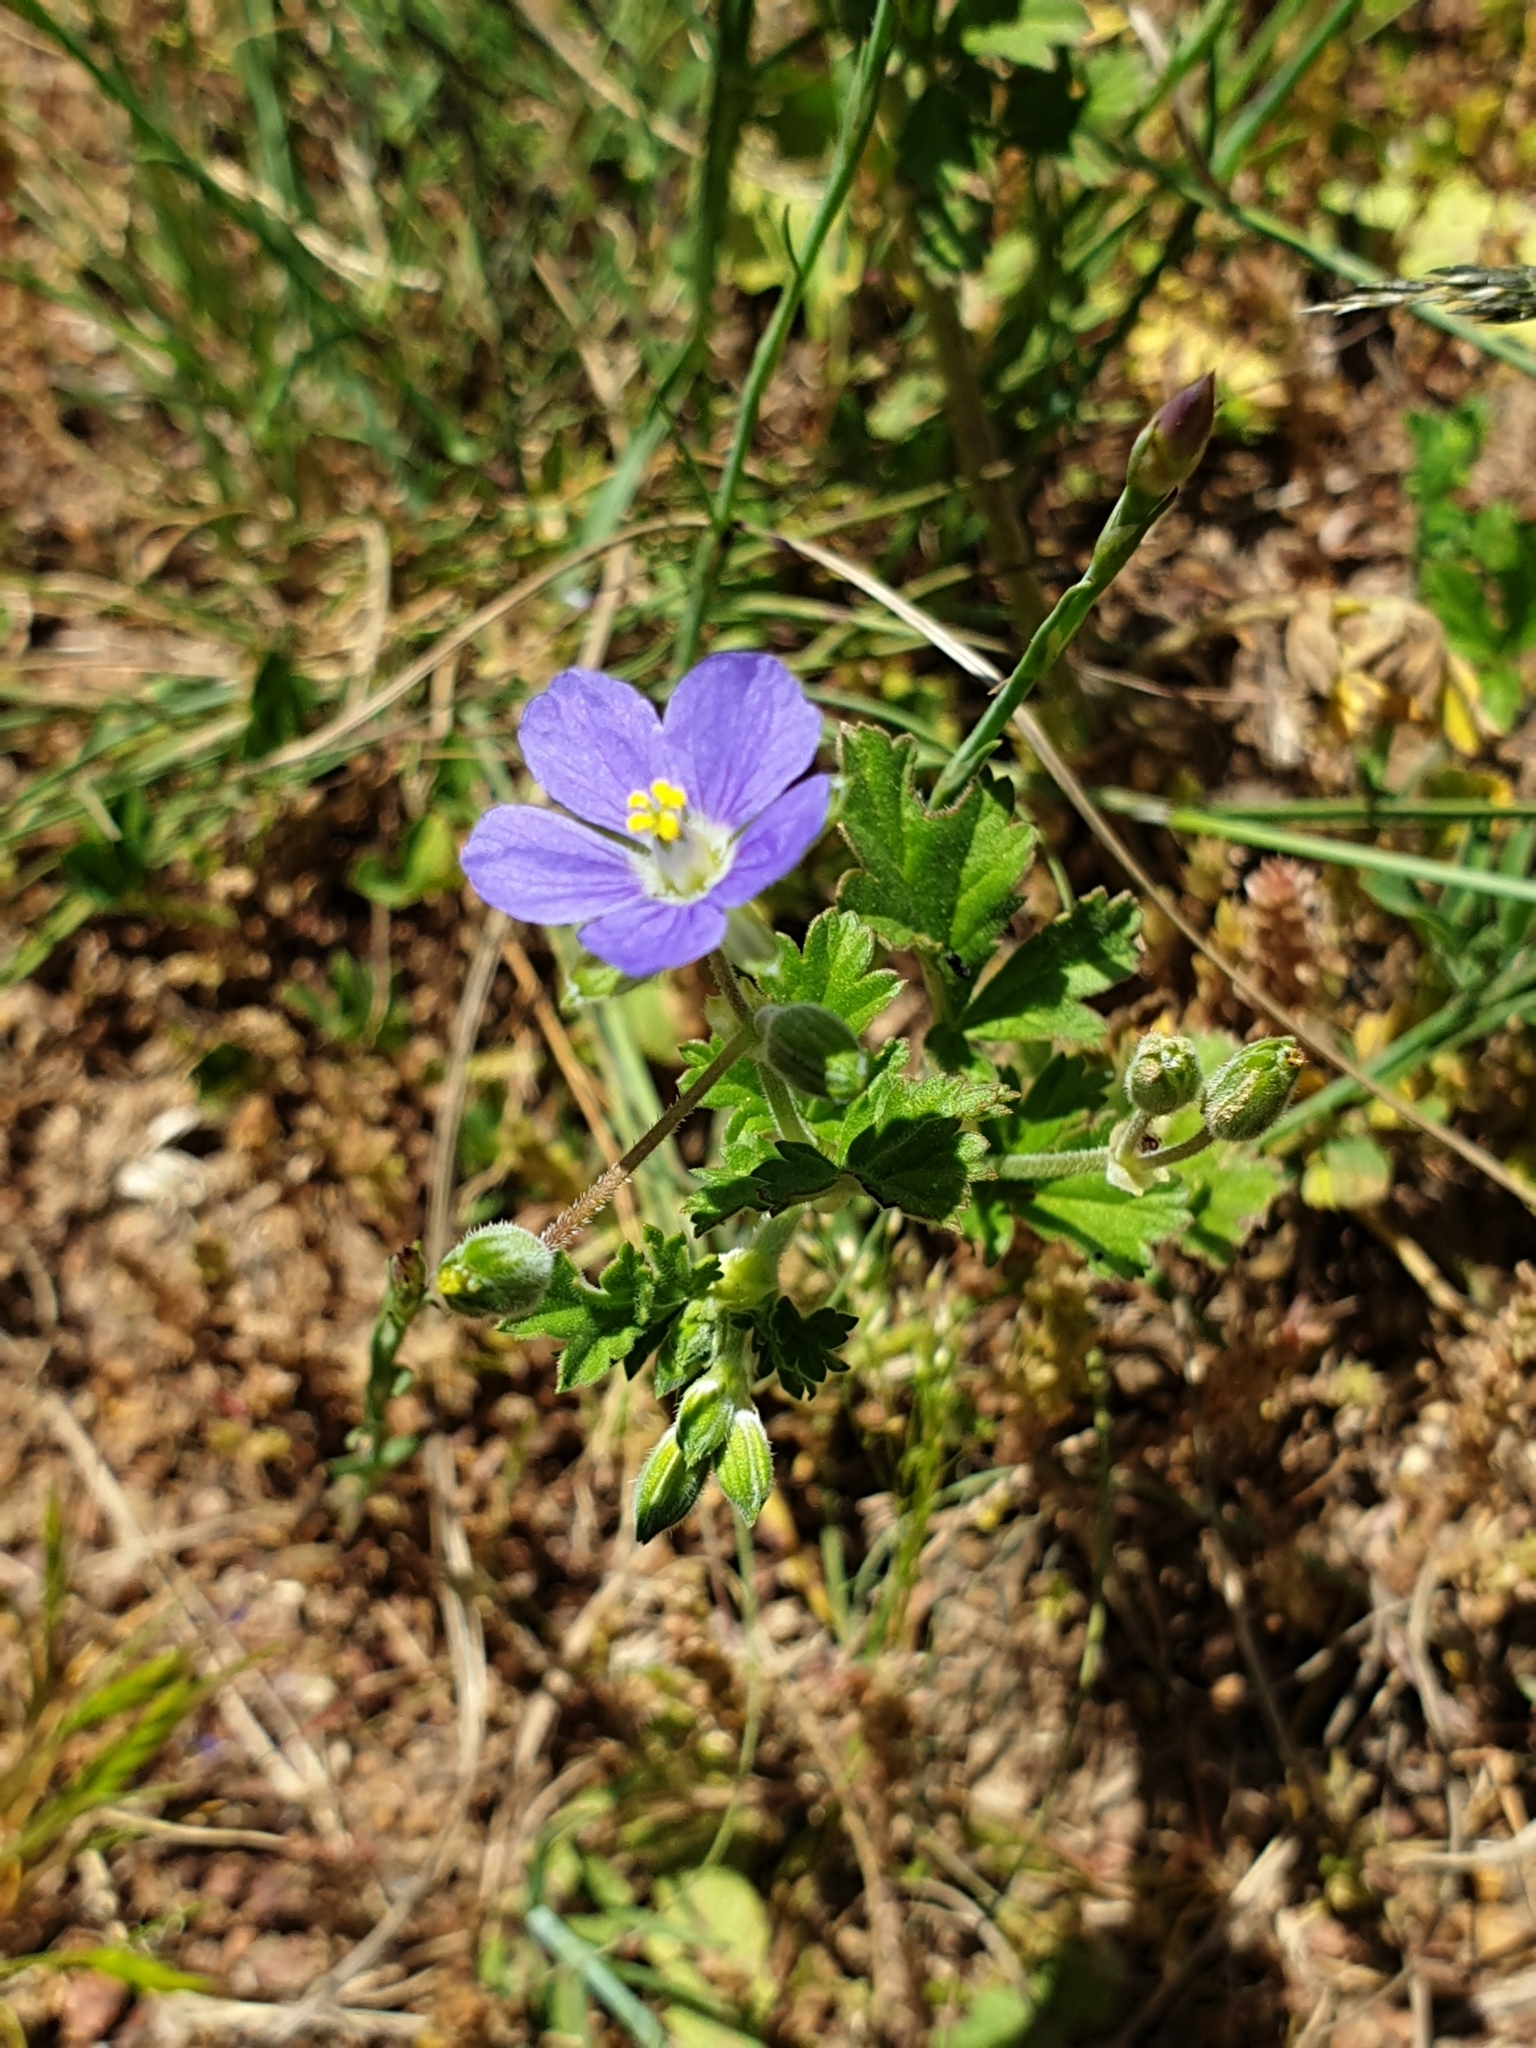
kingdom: Plantae
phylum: Tracheophyta
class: Magnoliopsida
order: Geraniales
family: Geraniaceae
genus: Erodium
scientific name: Erodium crinitum
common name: Eastern stork's-bill
